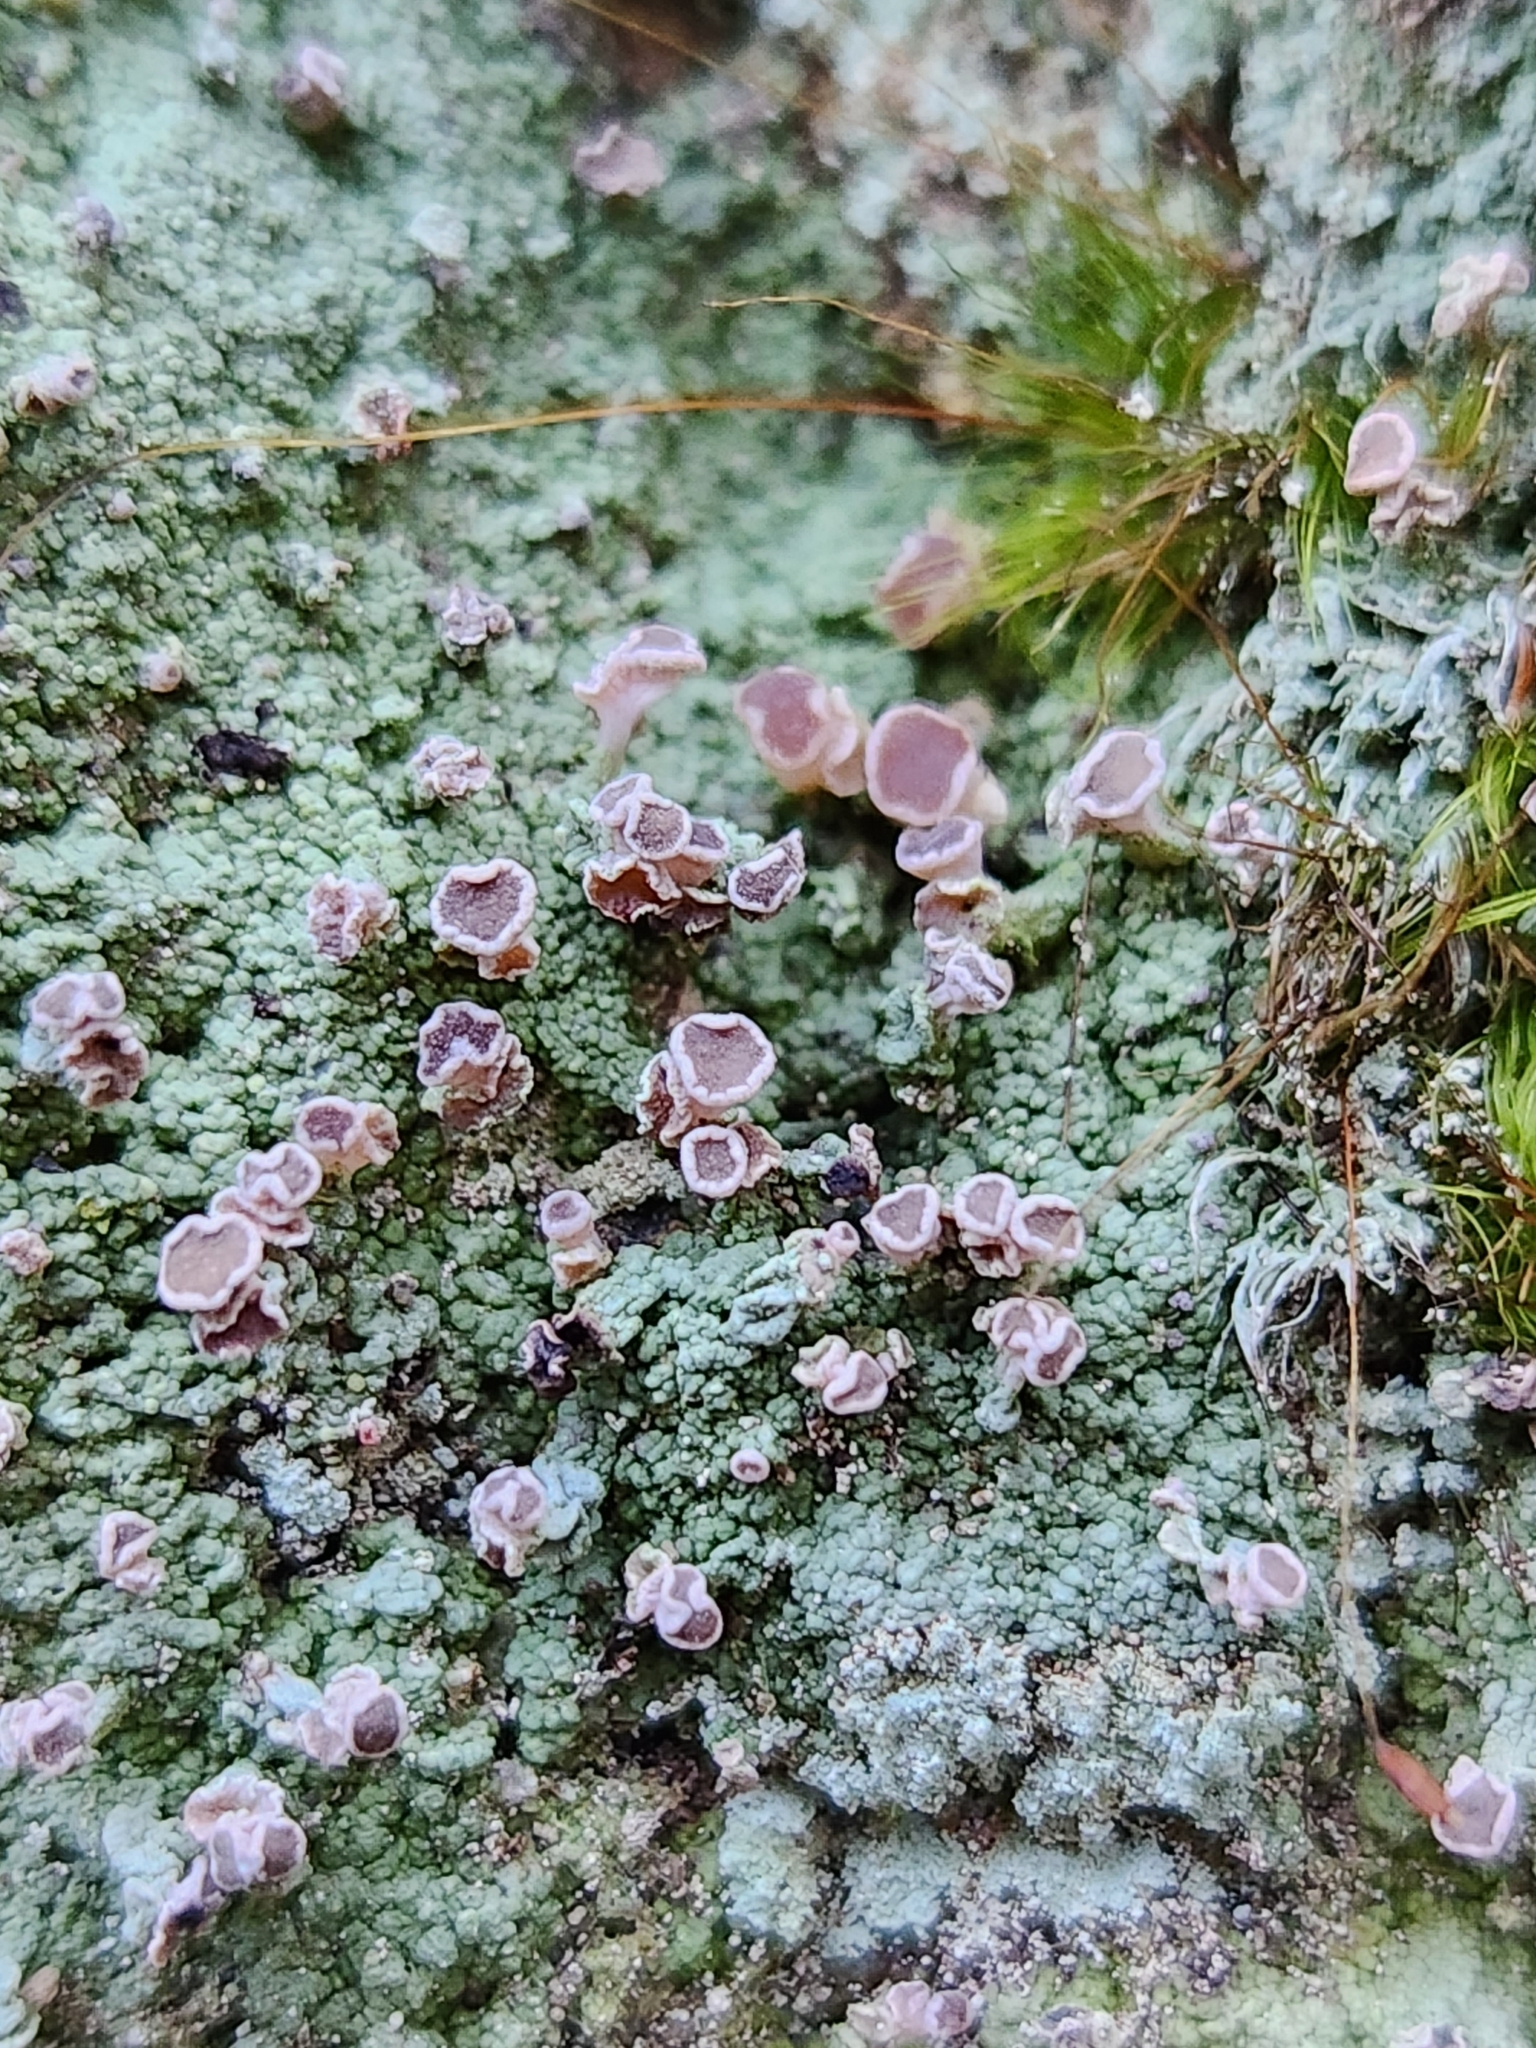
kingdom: Fungi
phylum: Ascomycota
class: Lecanoromycetes
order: Baeomycetales
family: Baeomycetaceae
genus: Baeomyces
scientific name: Baeomyces heteromorphus
